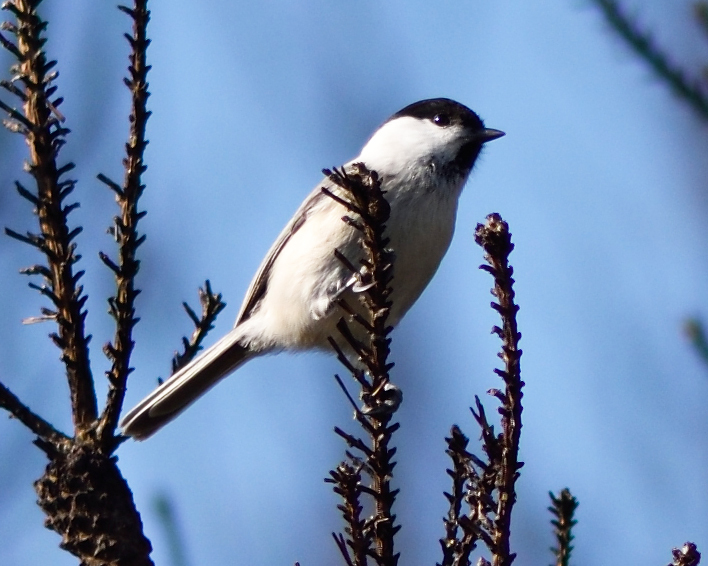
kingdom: Animalia
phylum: Chordata
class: Aves
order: Passeriformes
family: Paridae
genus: Poecile
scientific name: Poecile montanus
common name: Willow tit
